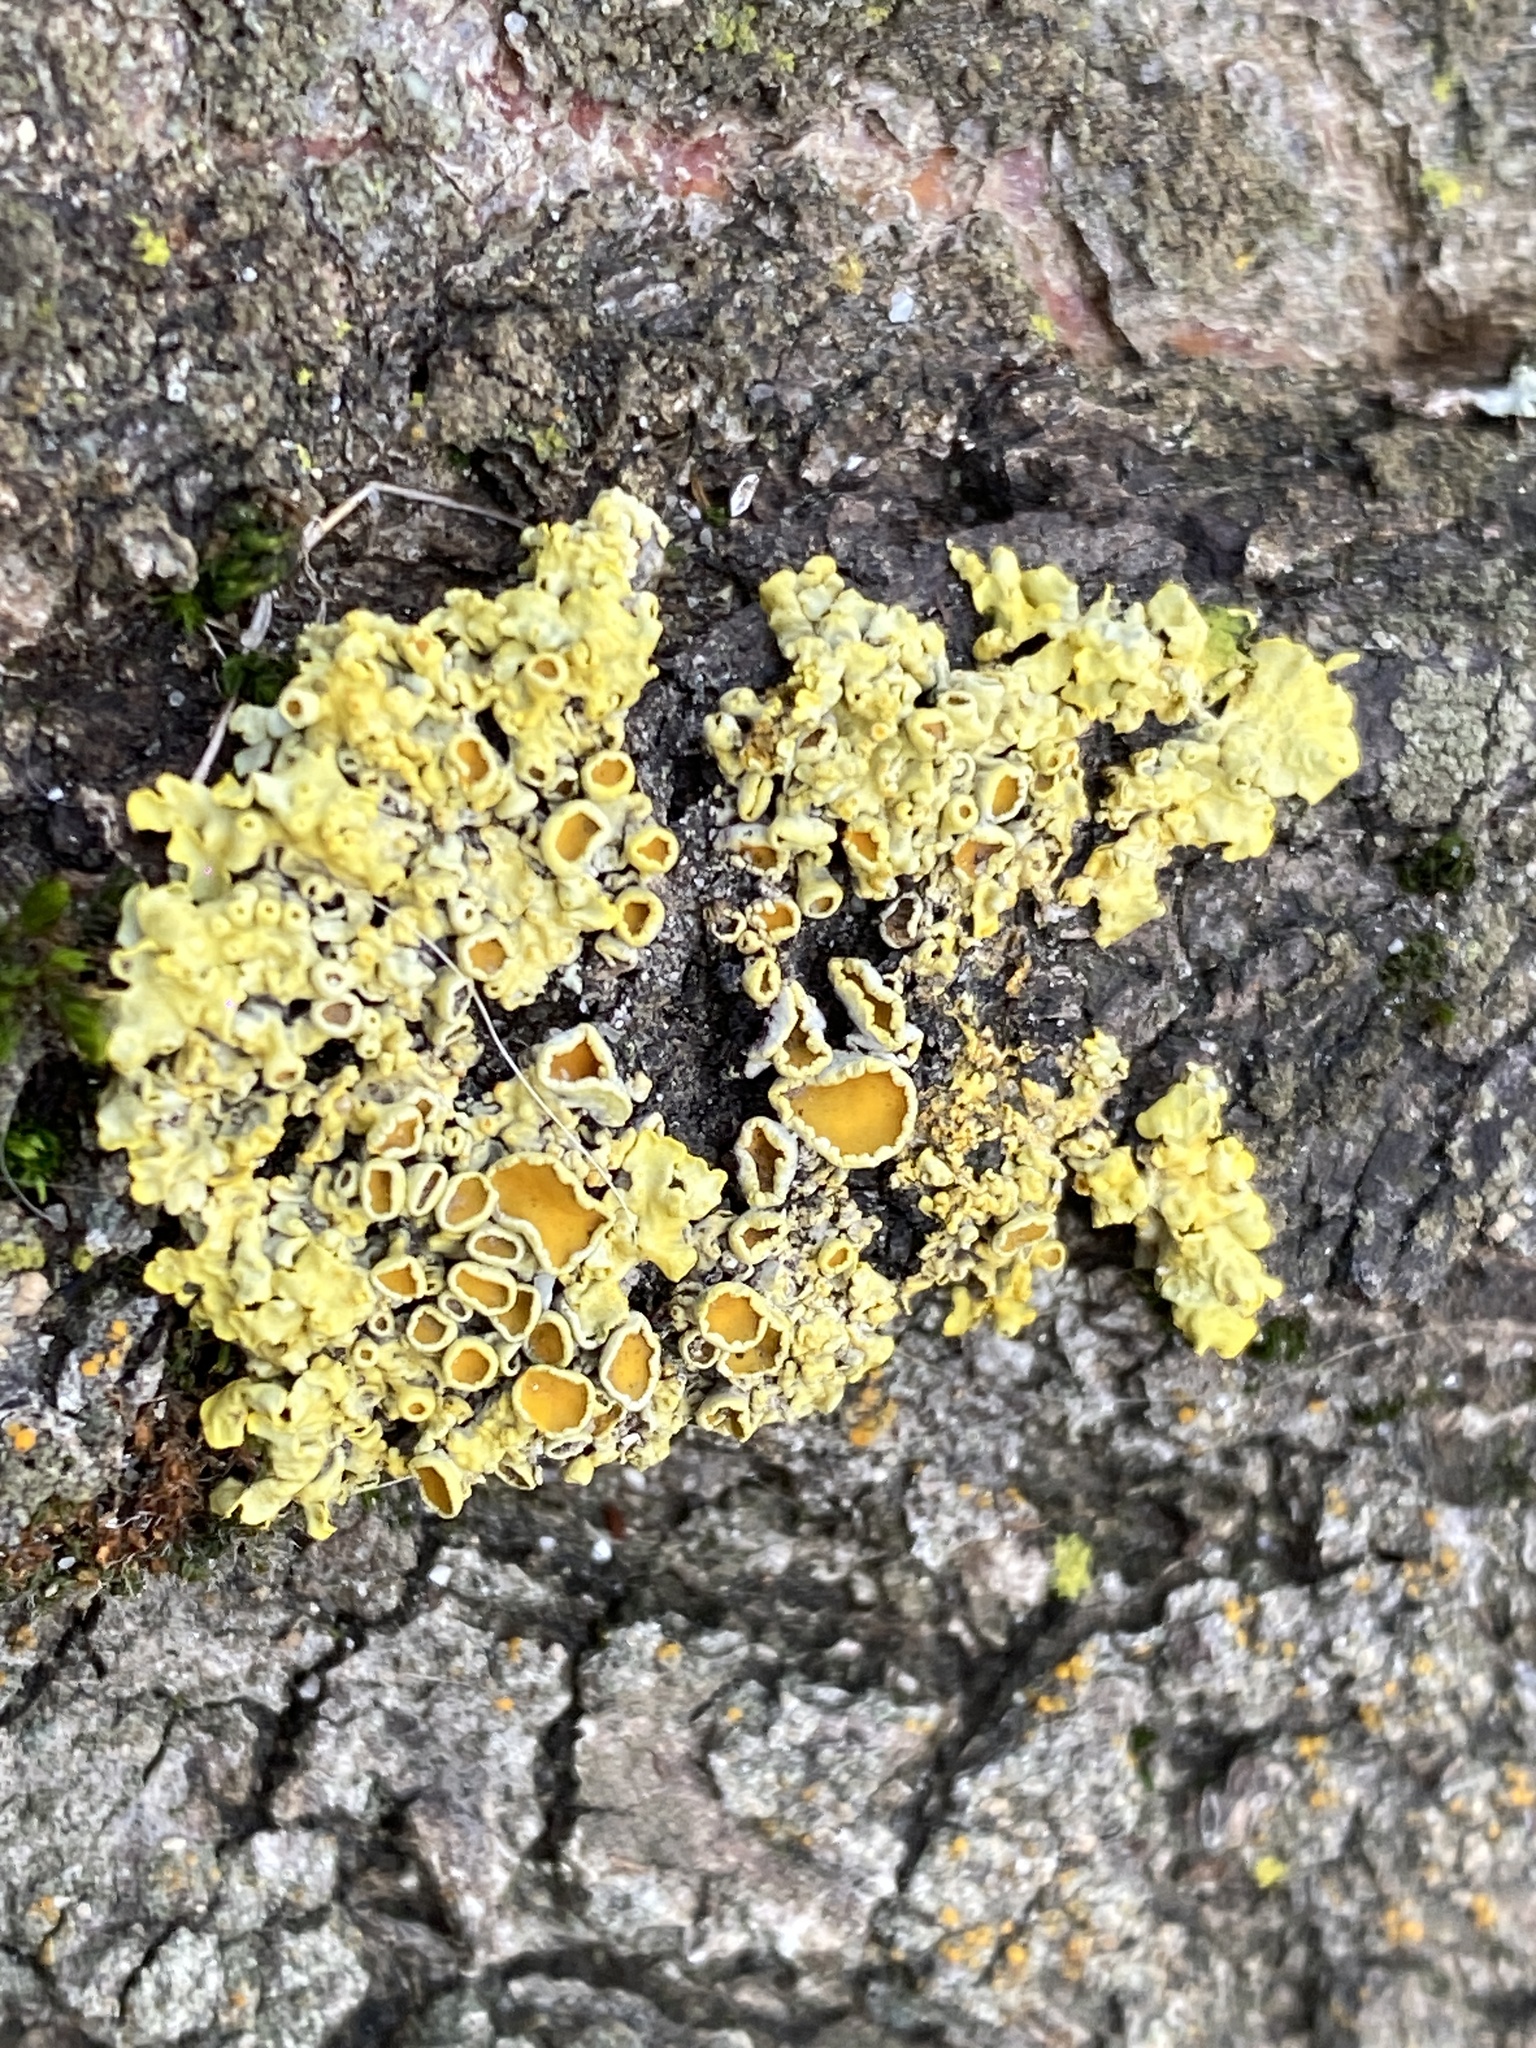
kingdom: Fungi
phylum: Ascomycota
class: Lecanoromycetes
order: Teloschistales
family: Teloschistaceae
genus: Xanthoria
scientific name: Xanthoria parietina
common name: Common orange lichen
